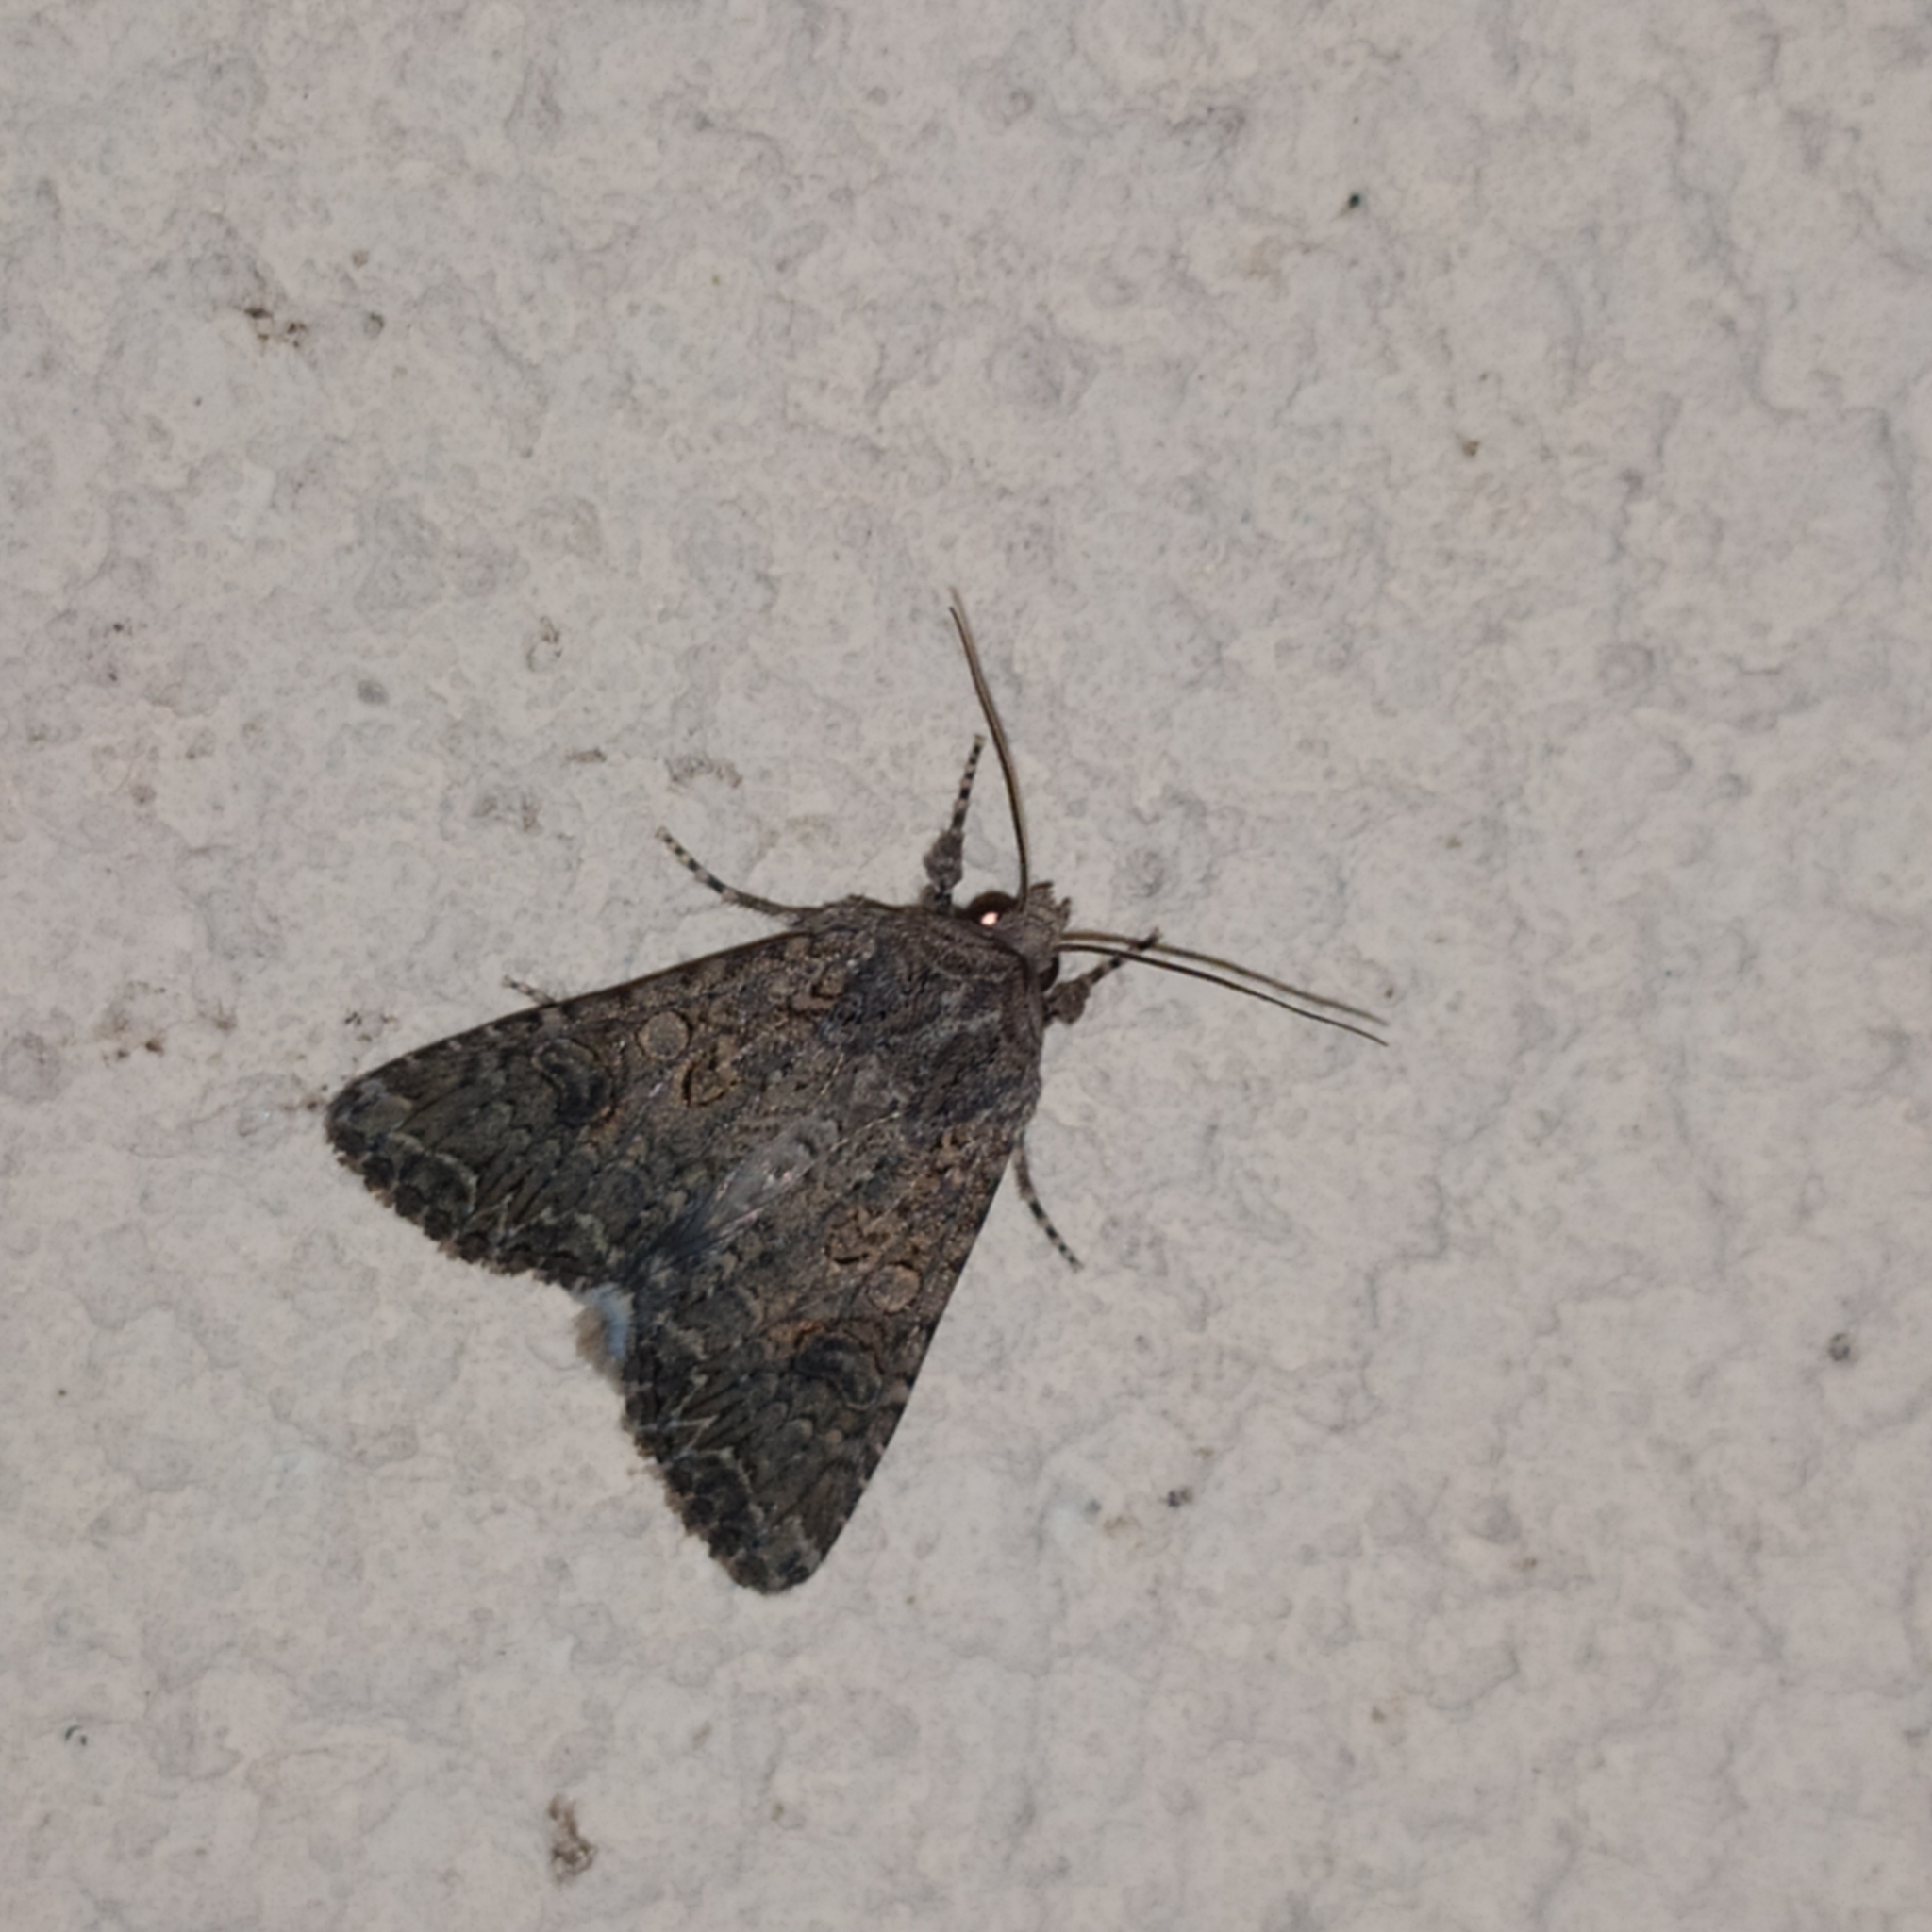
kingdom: Animalia
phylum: Arthropoda
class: Insecta
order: Lepidoptera
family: Noctuidae
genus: Anarta
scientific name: Anarta trifolii
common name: Clover cutworm moth
